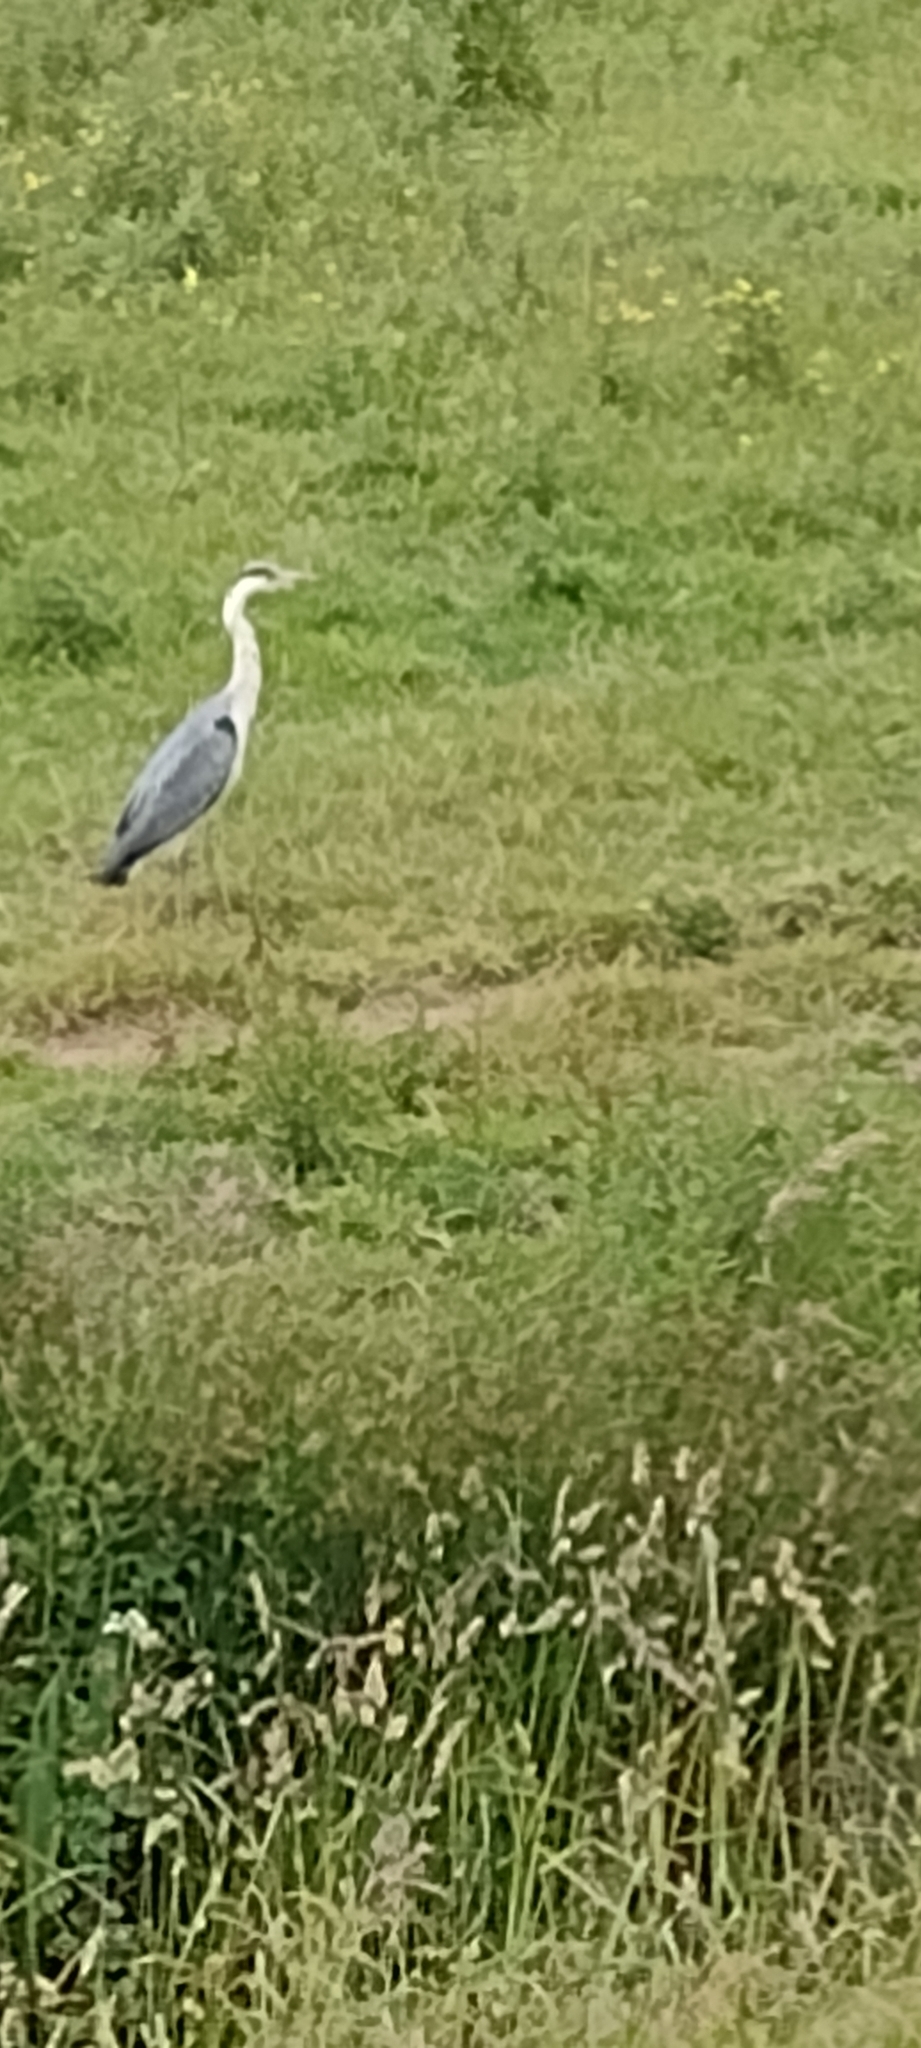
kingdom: Animalia
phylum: Chordata
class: Aves
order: Pelecaniformes
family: Ardeidae
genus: Ardea
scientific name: Ardea cinerea
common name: Grey heron
